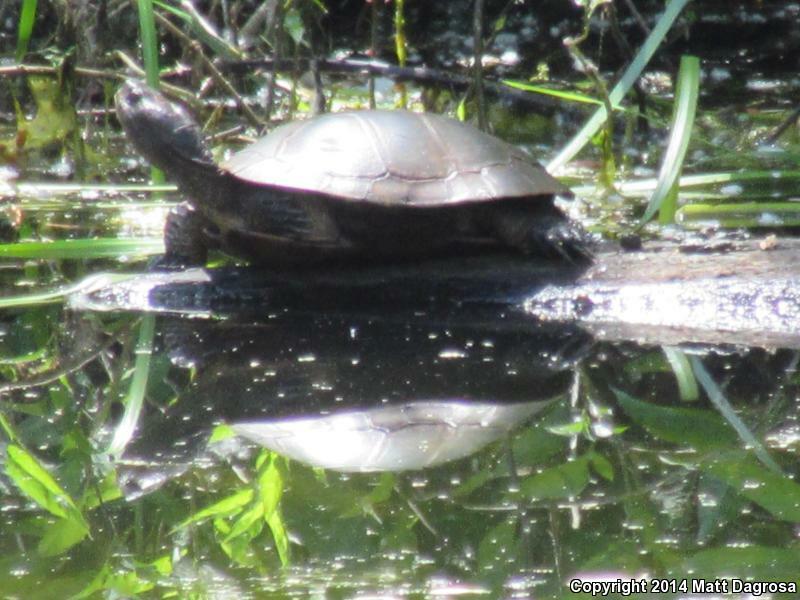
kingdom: Animalia
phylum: Chordata
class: Testudines
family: Emydidae
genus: Actinemys
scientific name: Actinemys marmorata
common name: Western pond turtle
